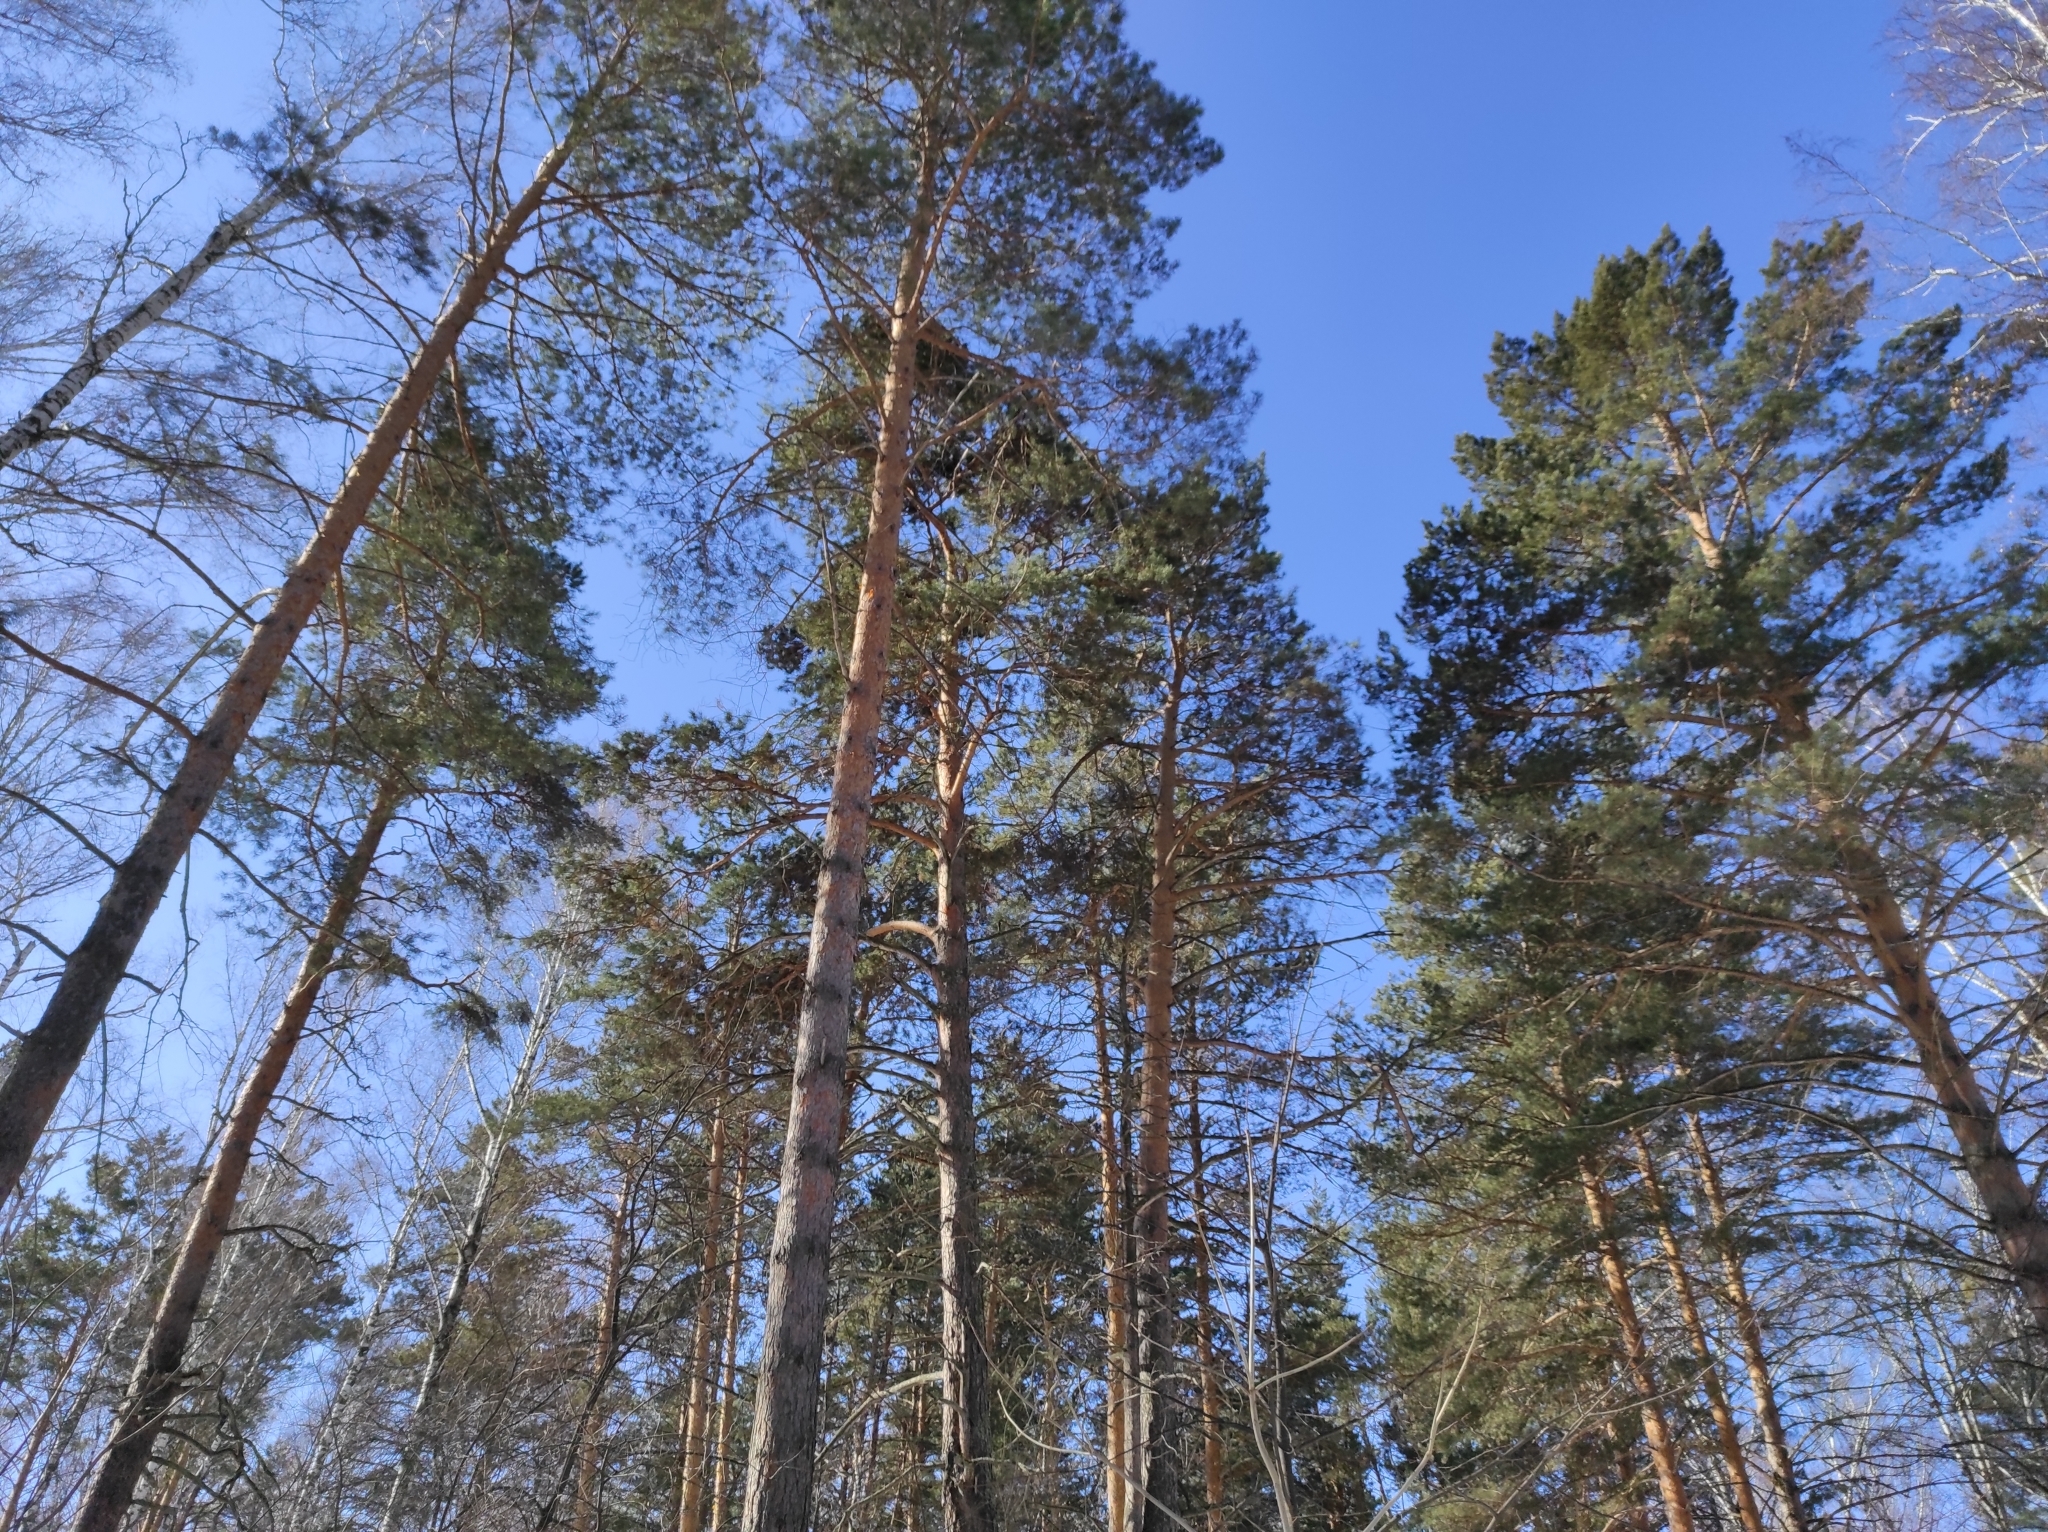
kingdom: Animalia
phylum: Chordata
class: Aves
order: Passeriformes
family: Paridae
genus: Parus
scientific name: Parus major
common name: Great tit
